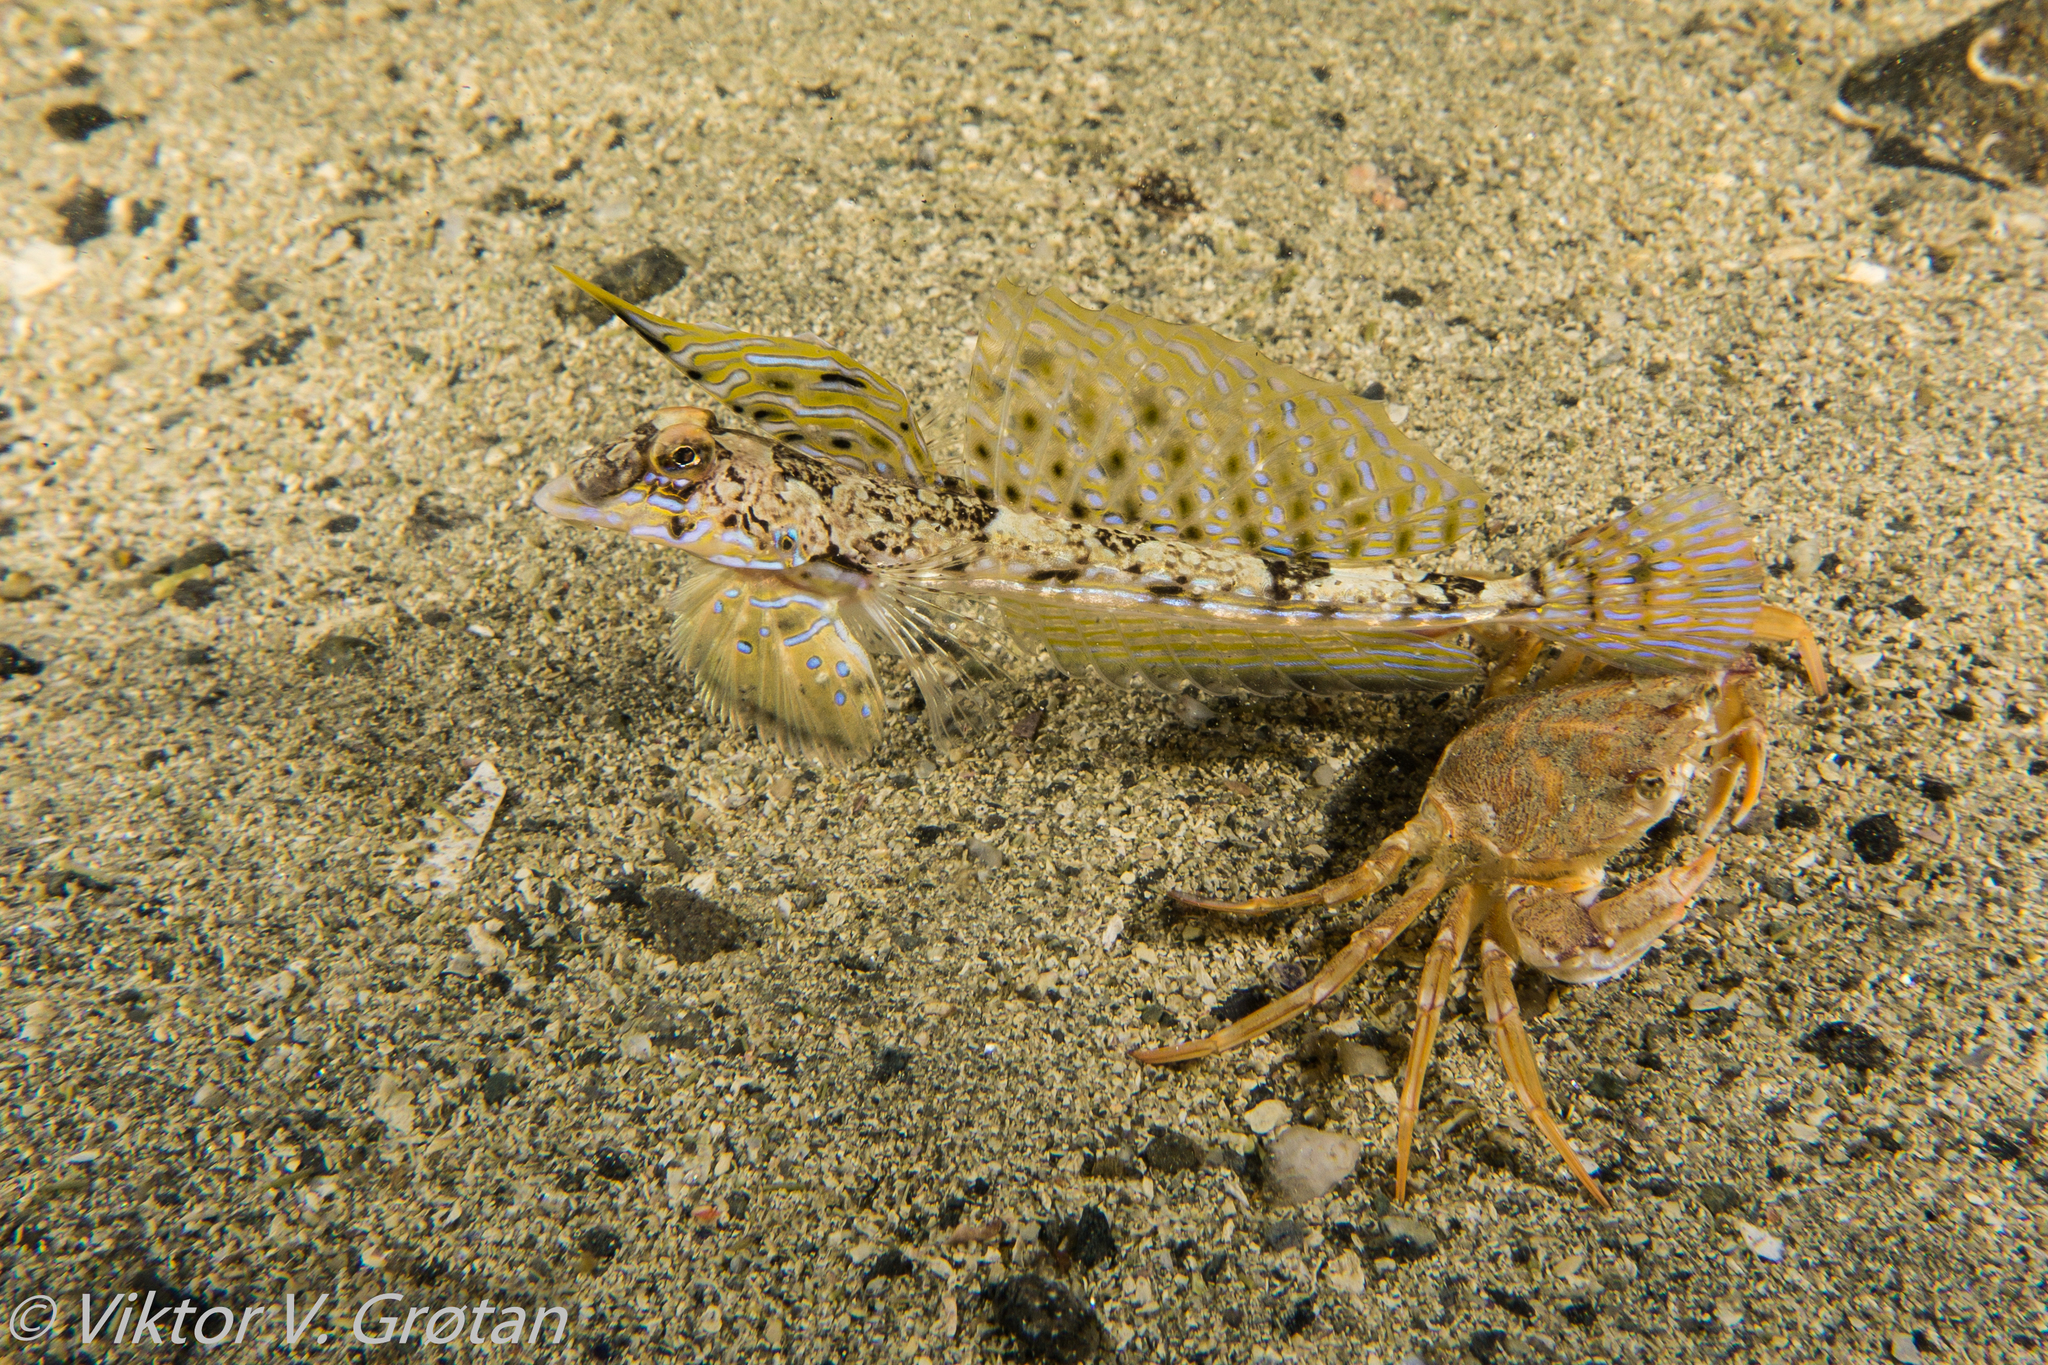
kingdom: Animalia
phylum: Chordata
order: Perciformes
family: Callionymidae
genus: Callionymus
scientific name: Callionymus reticulatus
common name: Reticulated dragonet
